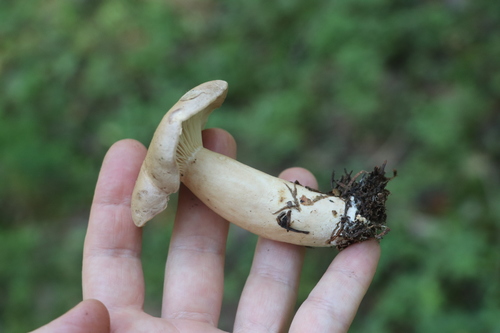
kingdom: Fungi
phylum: Basidiomycota
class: Agaricomycetes
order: Russulales
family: Russulaceae
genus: Lactarius
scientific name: Lactarius trivialis
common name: Tacked milkcap
